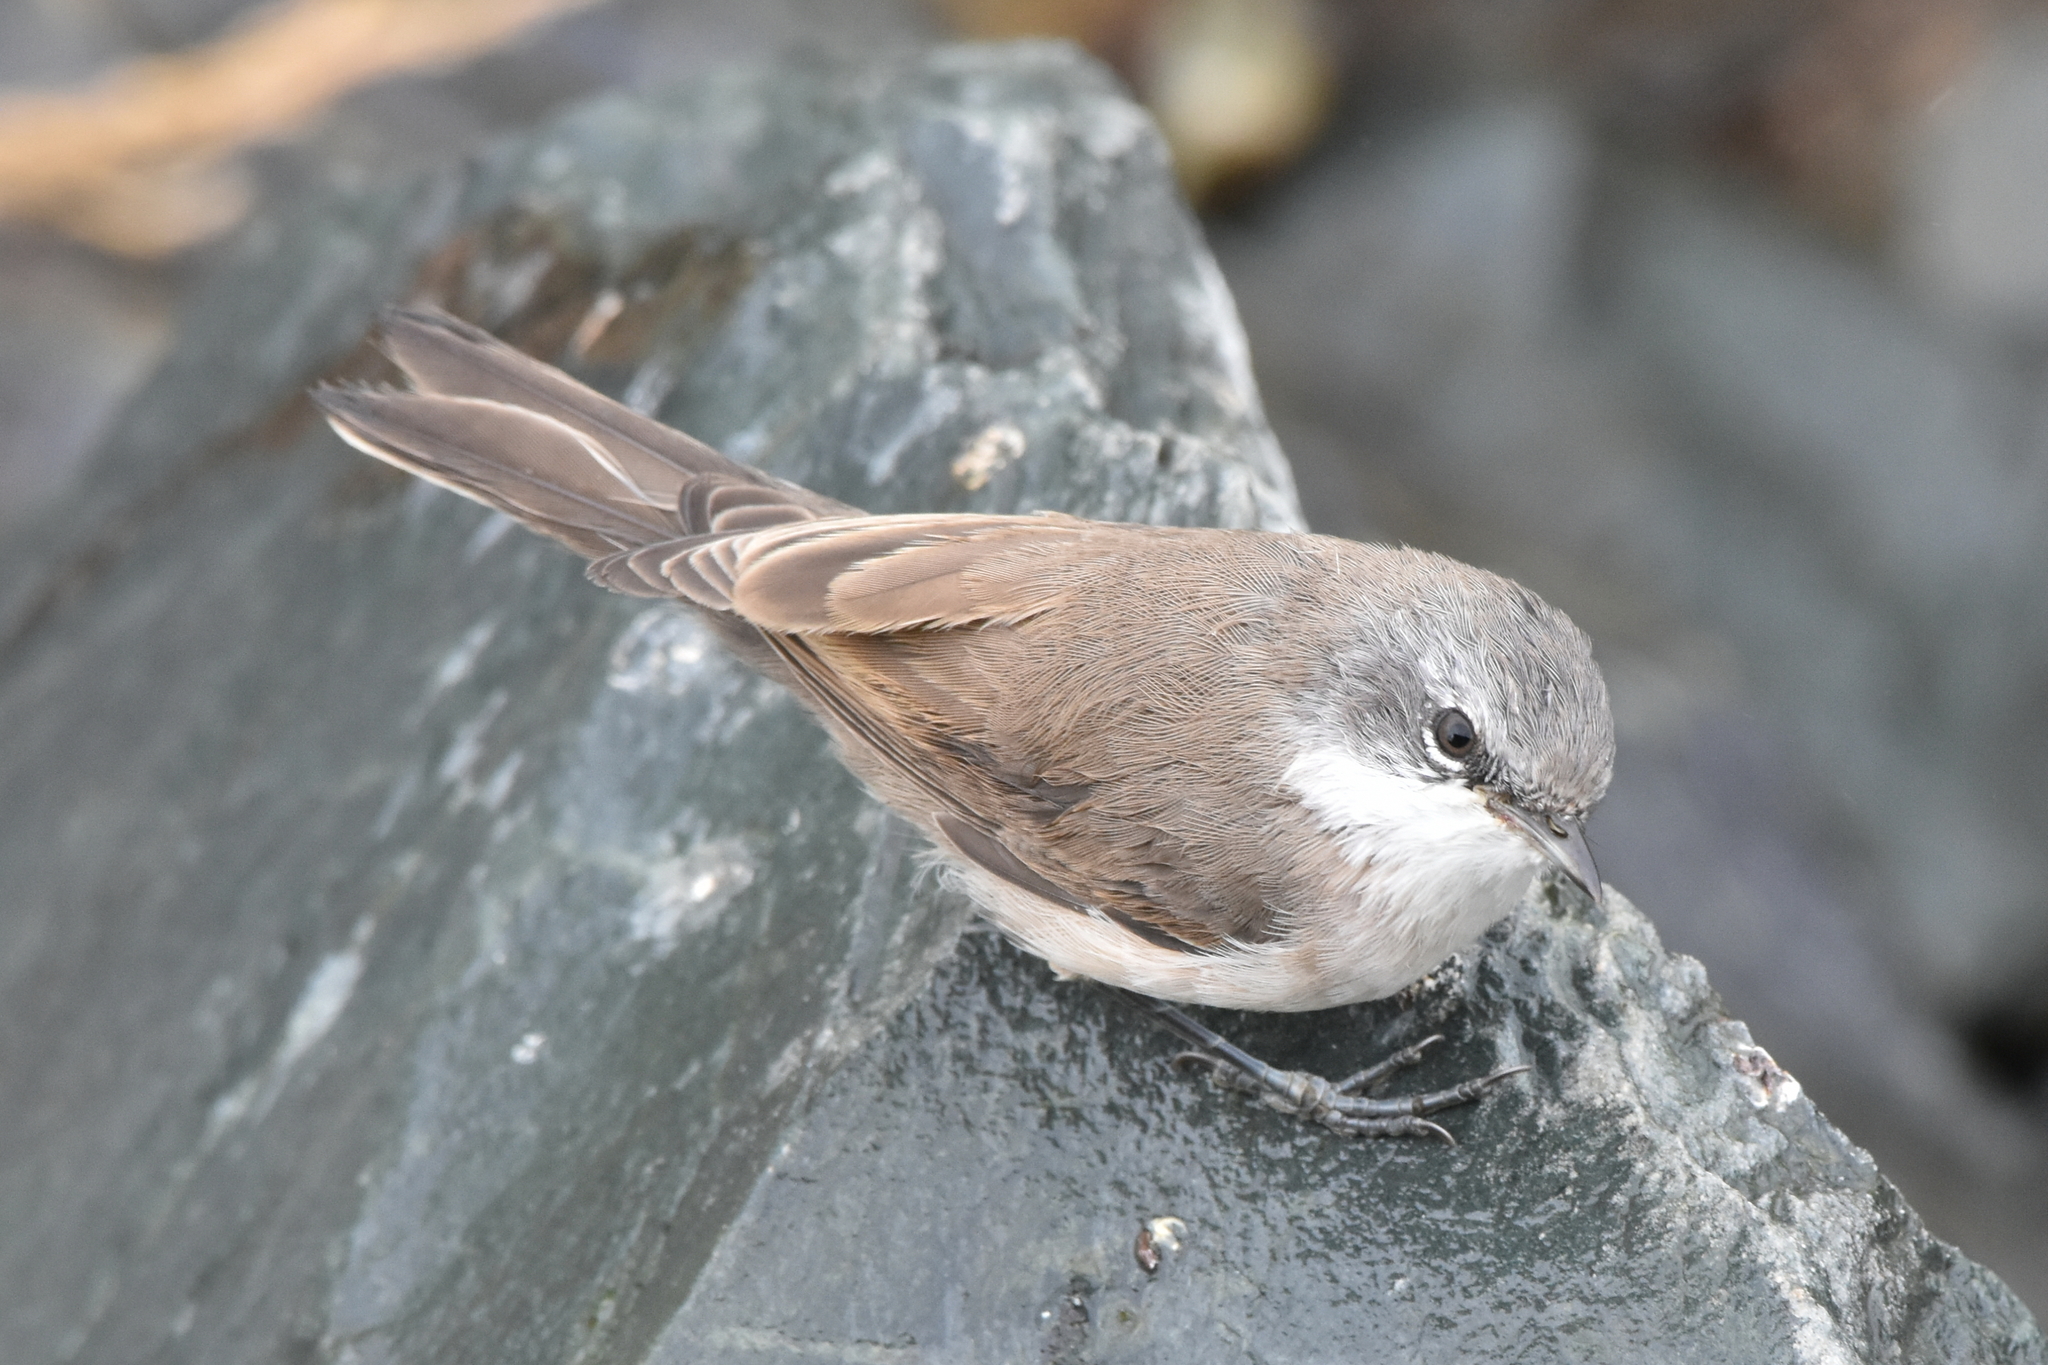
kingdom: Animalia
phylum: Chordata
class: Aves
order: Passeriformes
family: Sylviidae
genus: Sylvia
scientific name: Sylvia curruca
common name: Lesser whitethroat
